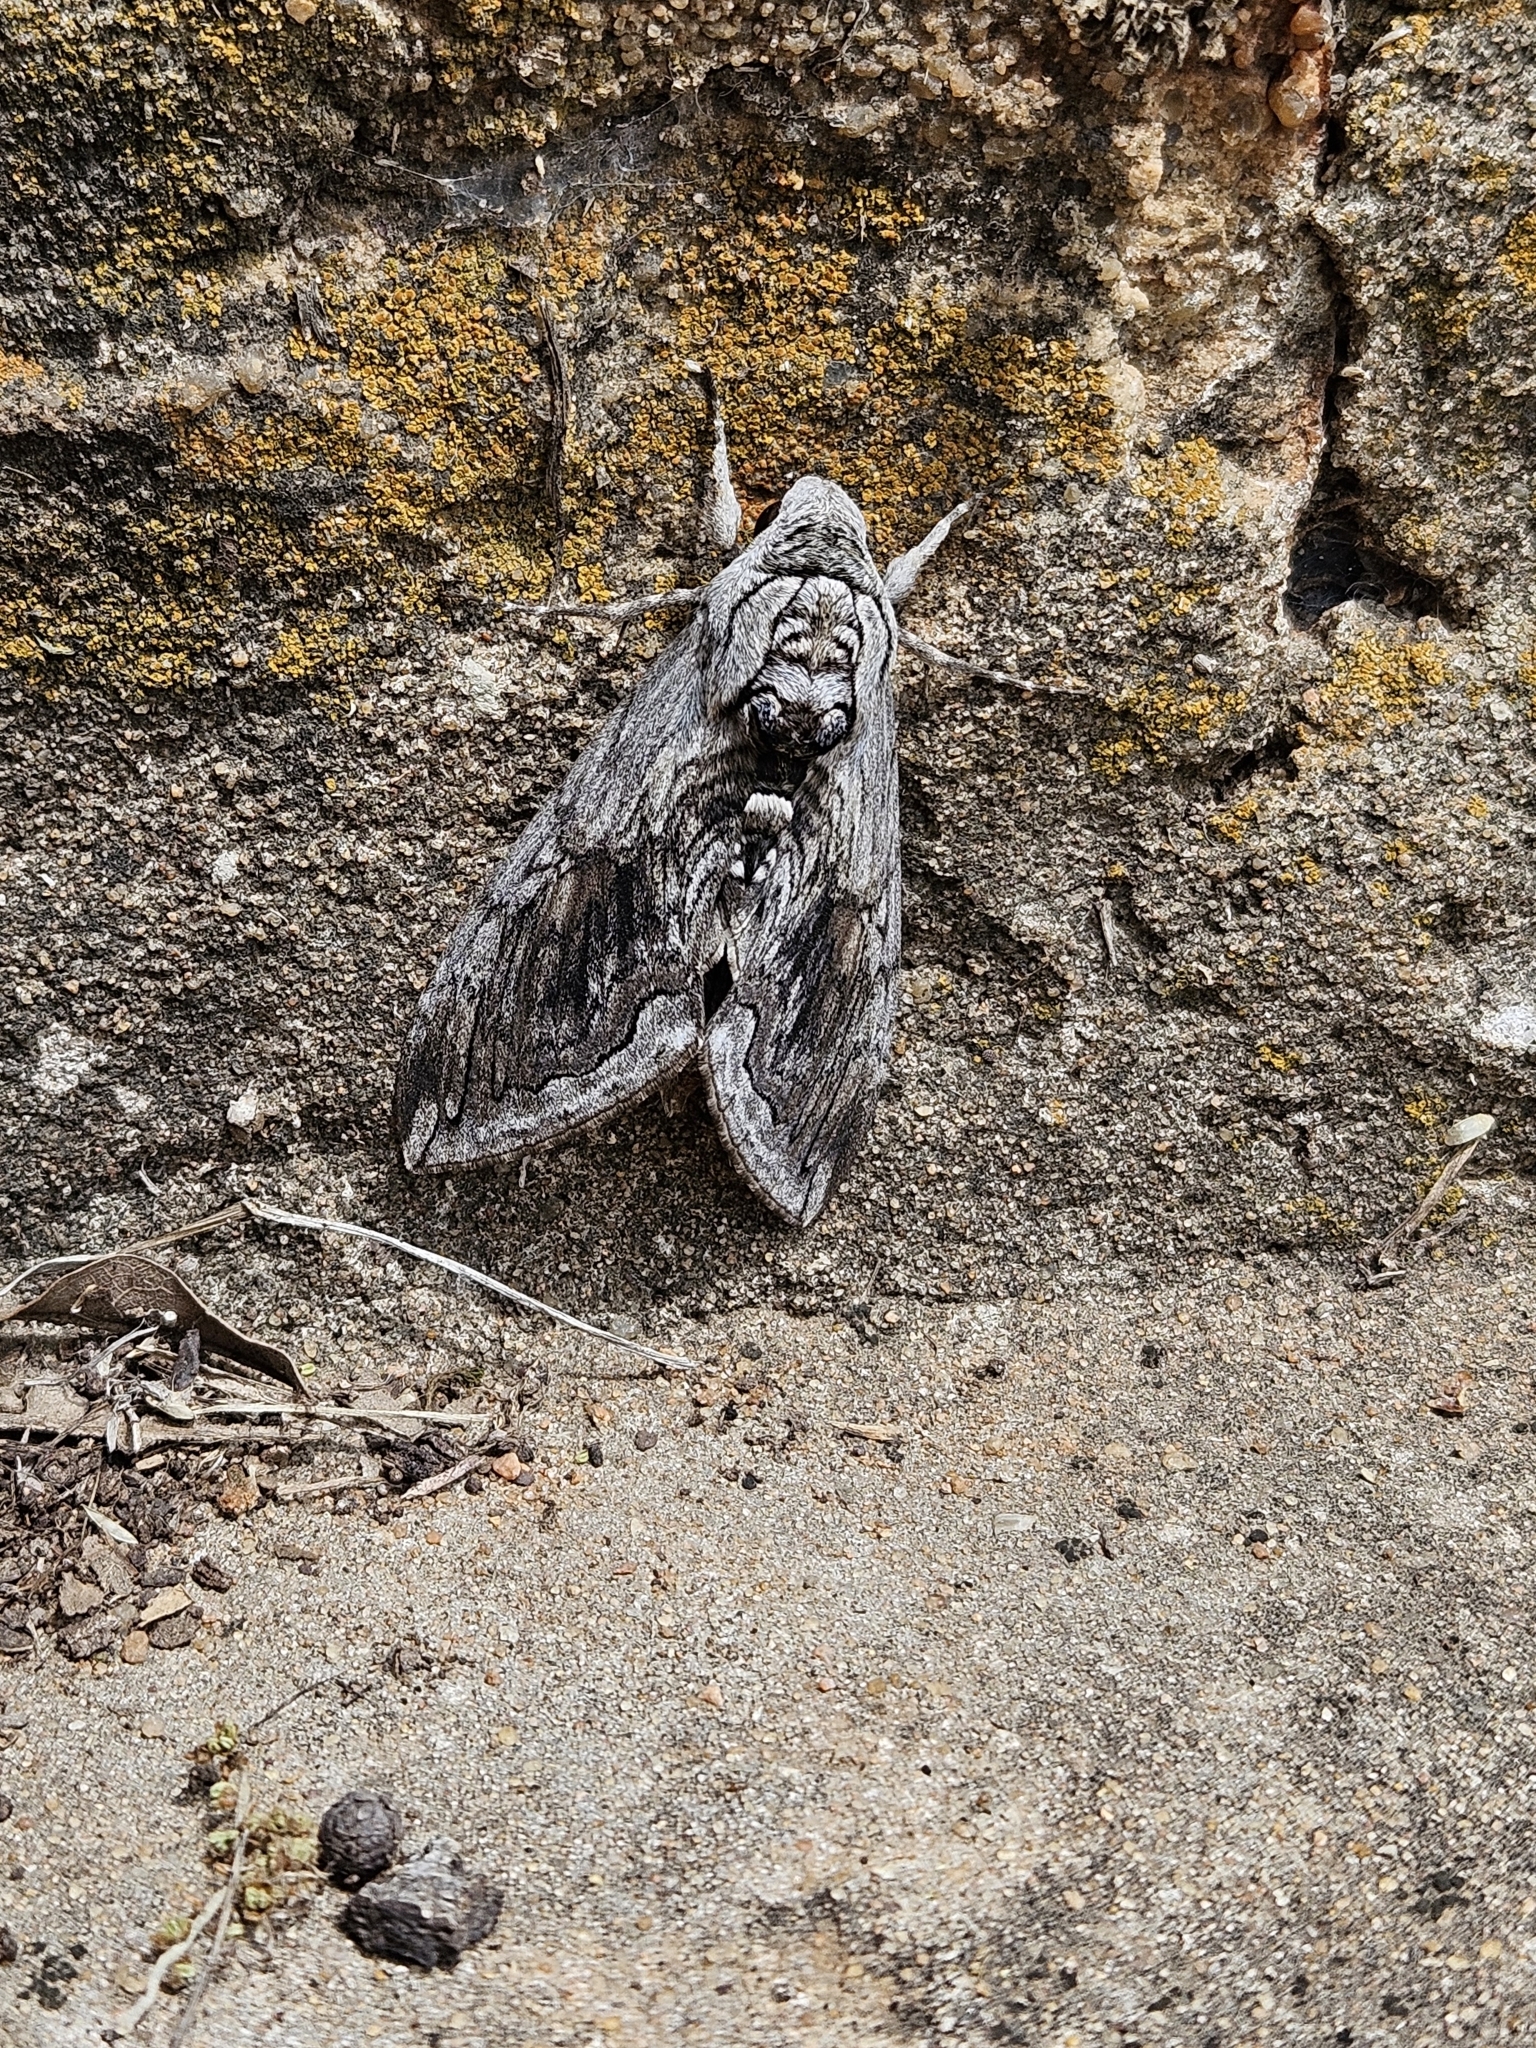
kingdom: Animalia
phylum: Arthropoda
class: Insecta
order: Lepidoptera
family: Sphingidae
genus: Manduca
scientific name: Manduca quinquemaculatus
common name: Five-spotted hawk-moth
